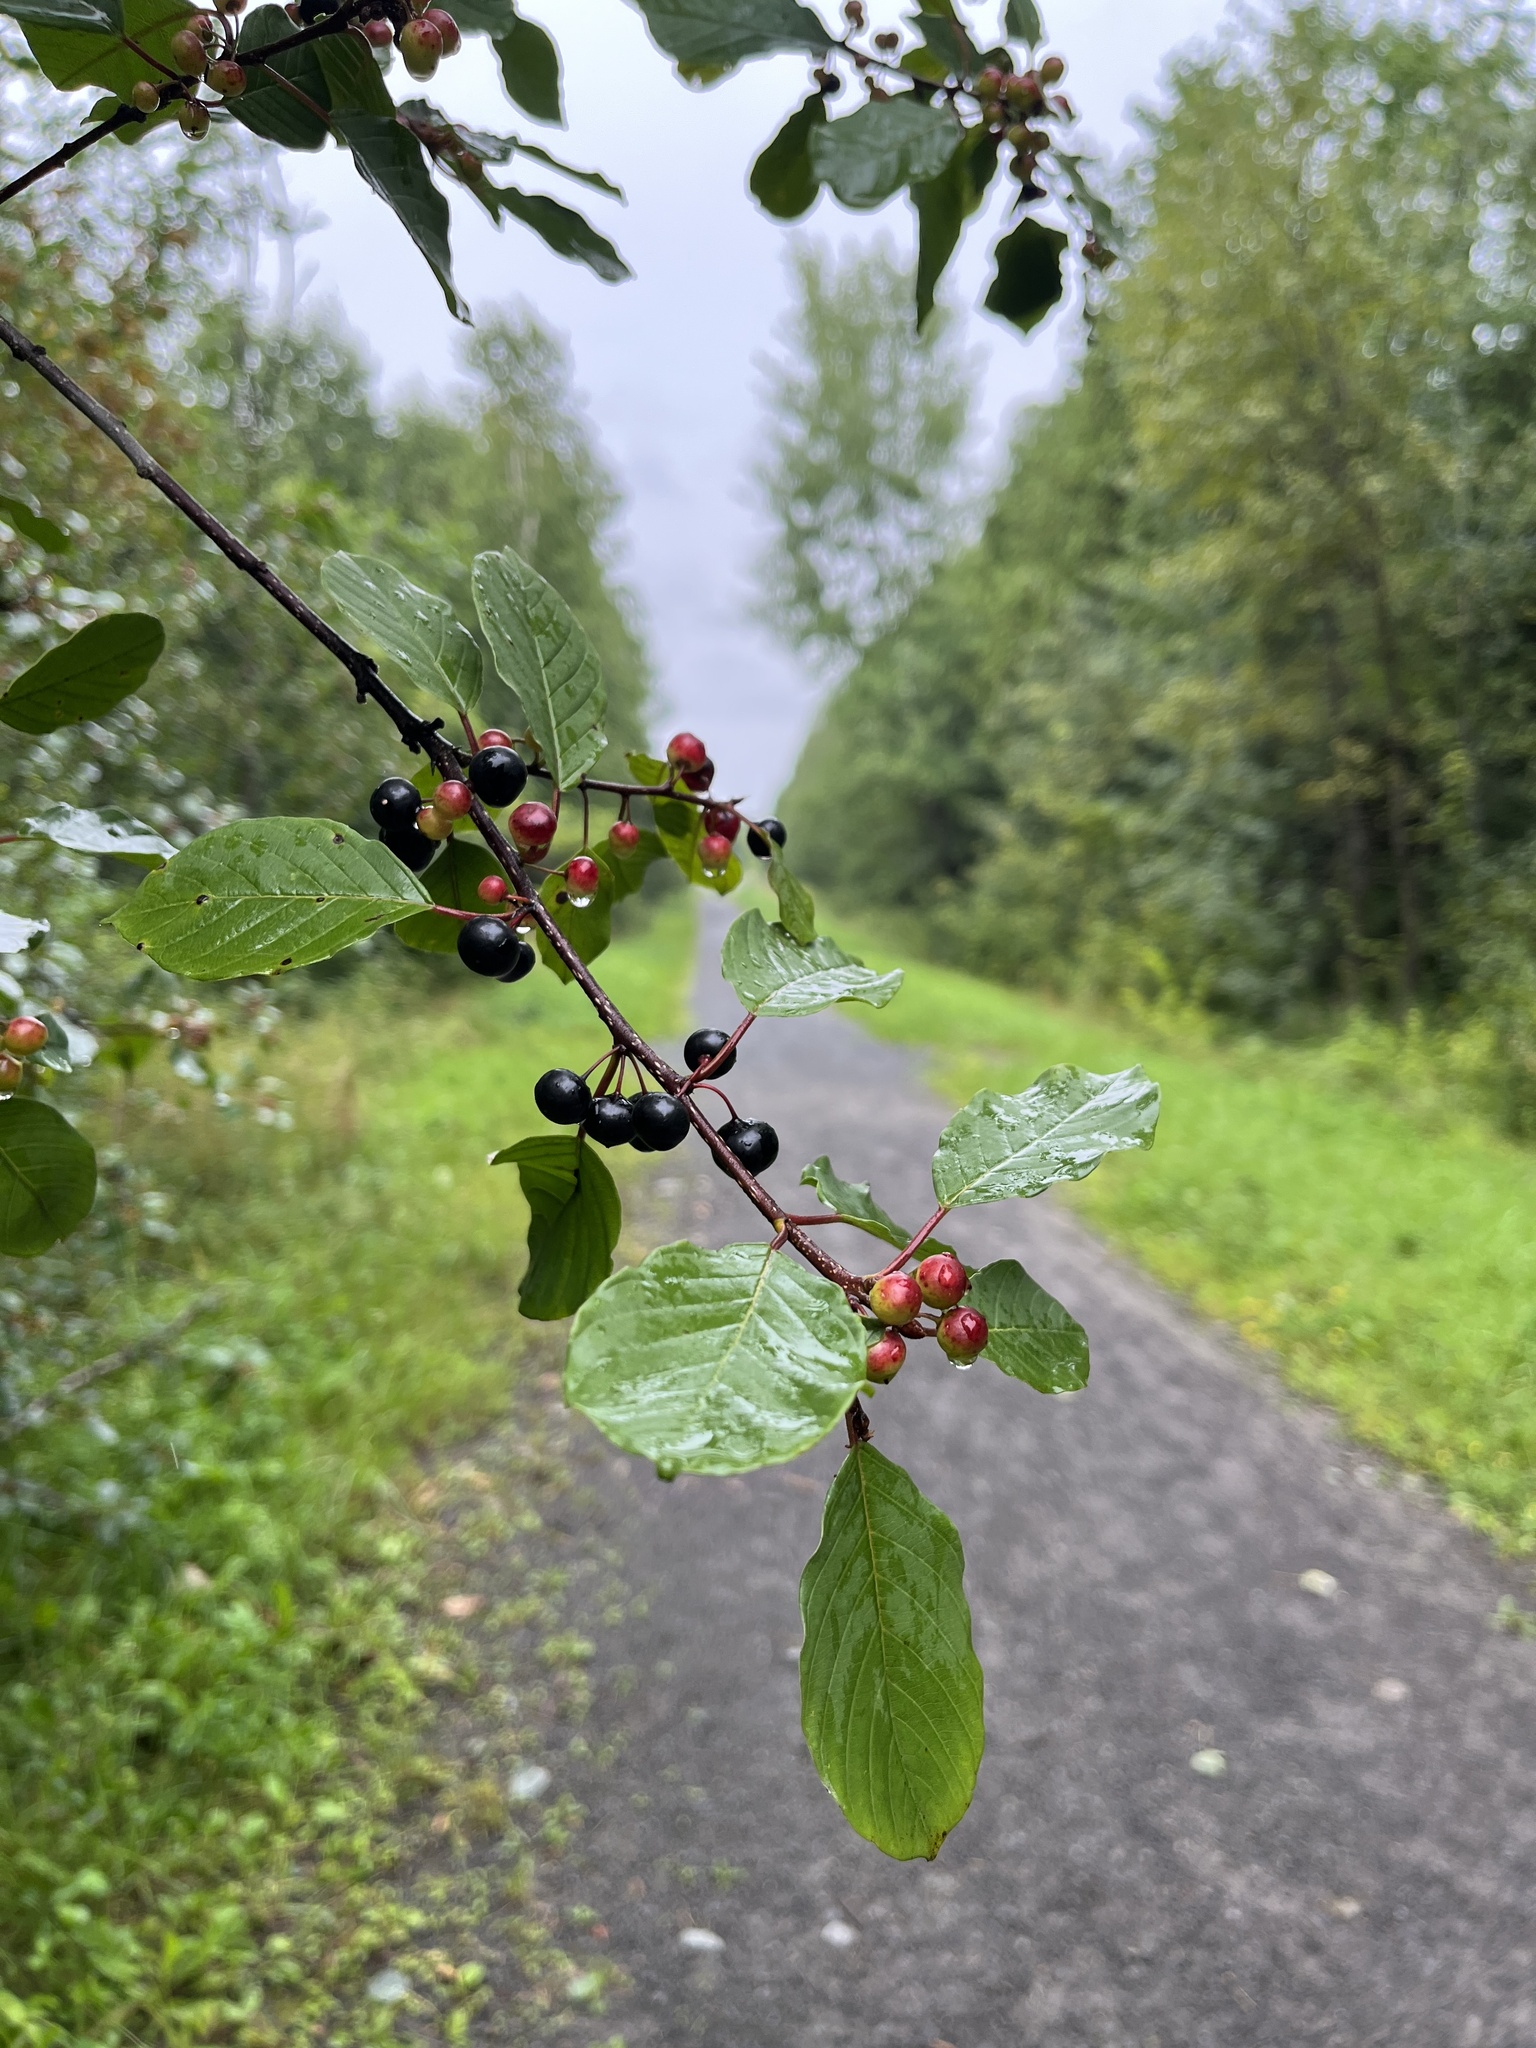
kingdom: Plantae
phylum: Tracheophyta
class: Magnoliopsida
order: Rosales
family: Rhamnaceae
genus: Frangula
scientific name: Frangula alnus
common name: Alder buckthorn
